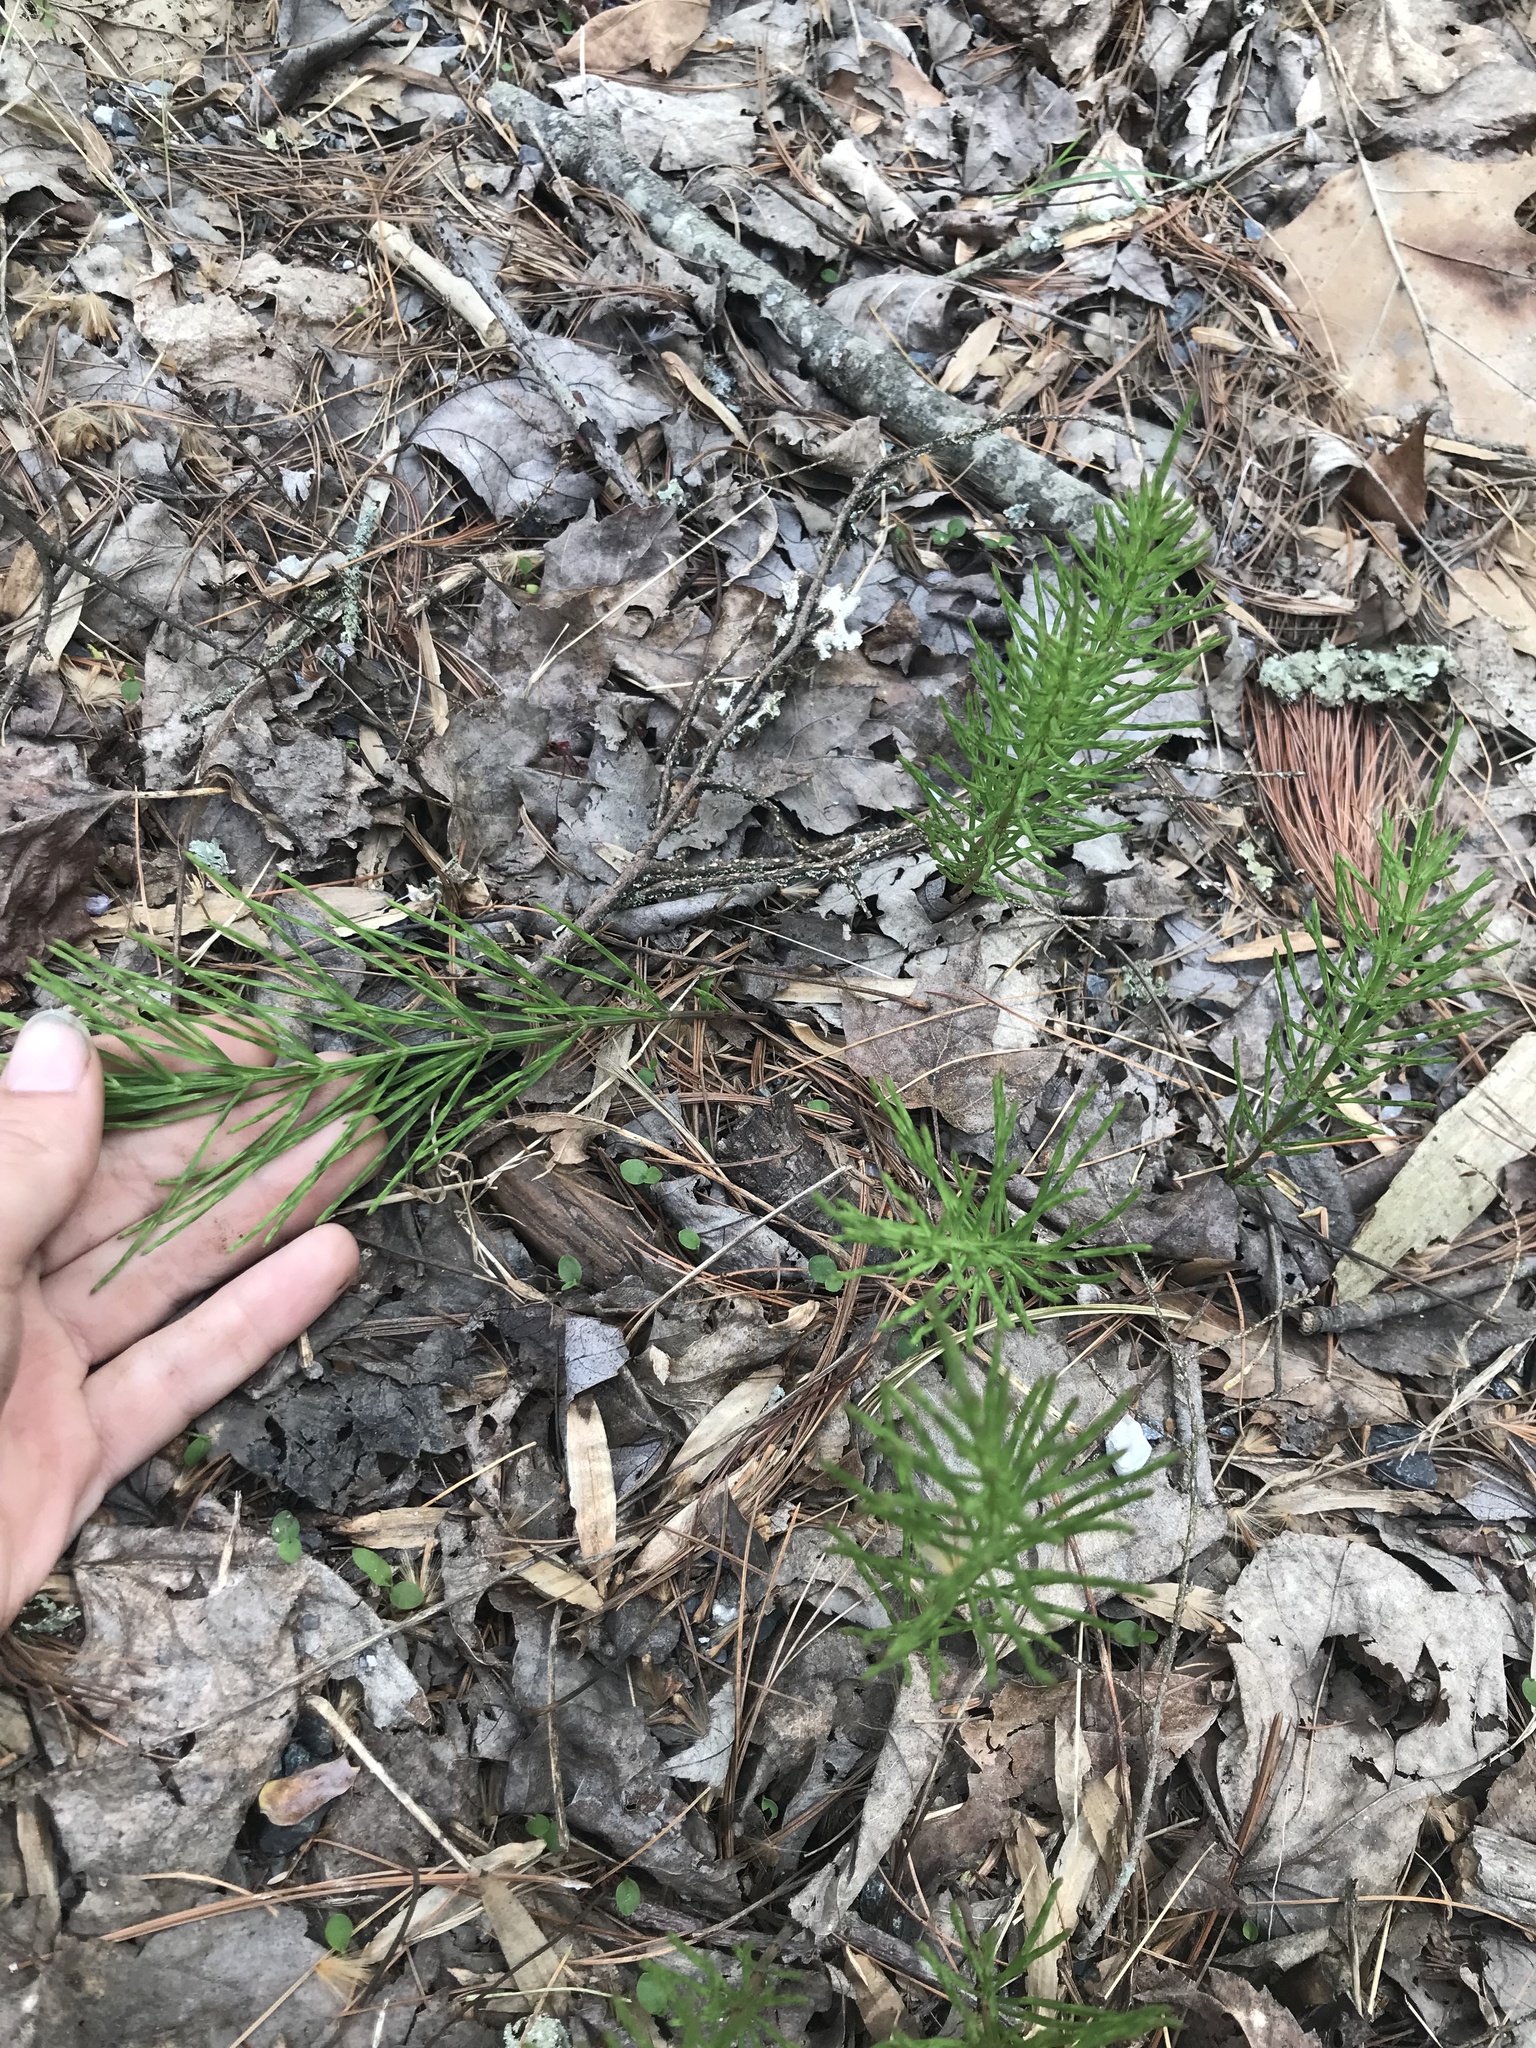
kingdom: Plantae
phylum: Tracheophyta
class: Polypodiopsida
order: Equisetales
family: Equisetaceae
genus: Equisetum
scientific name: Equisetum arvense
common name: Field horsetail
